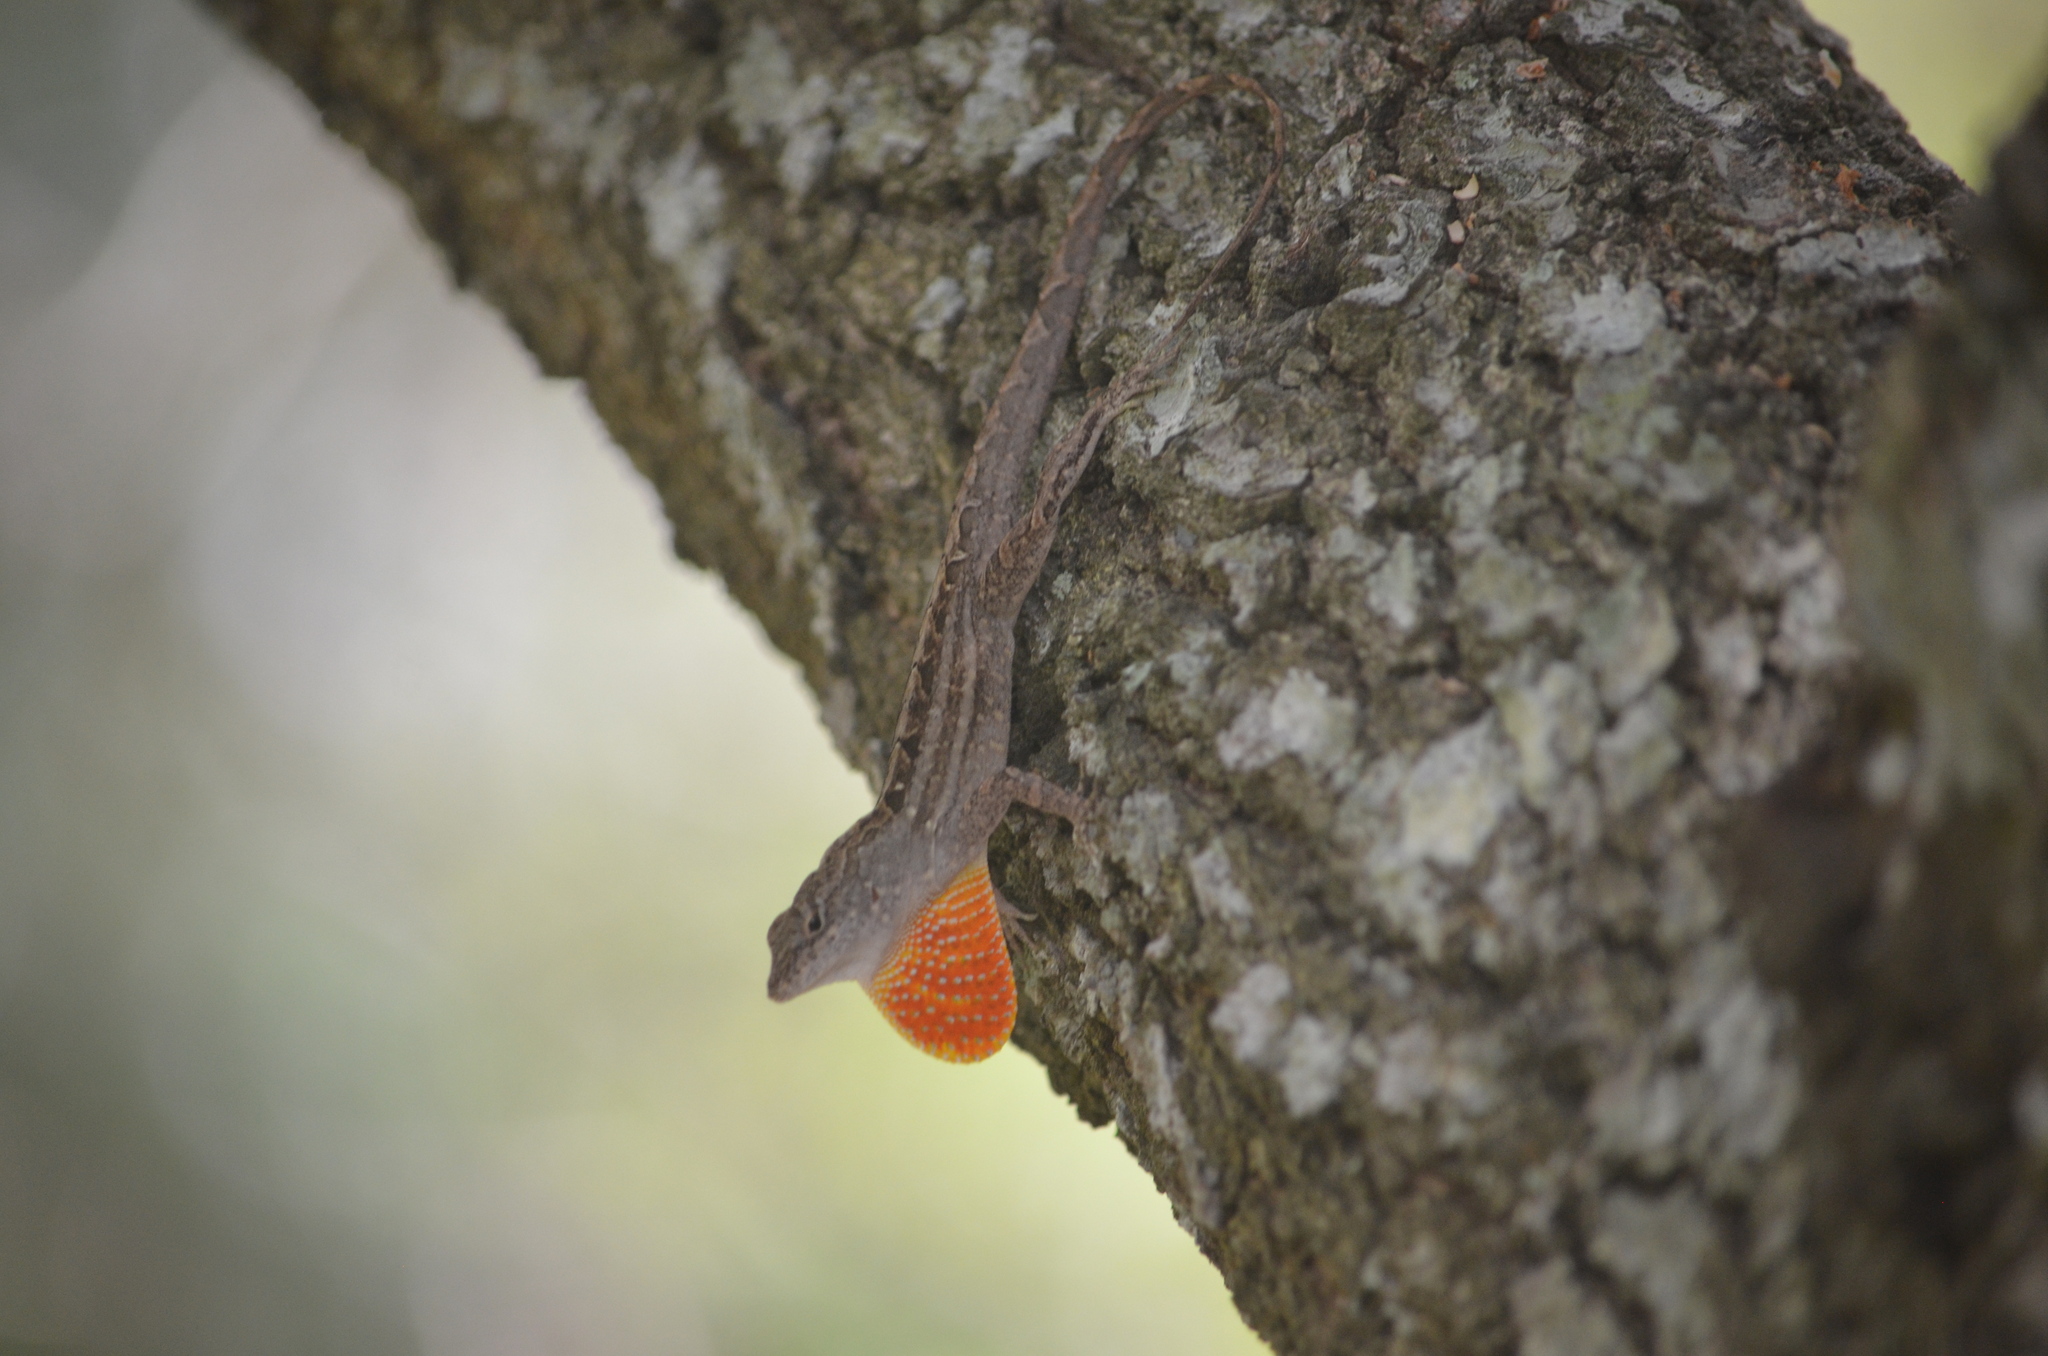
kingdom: Animalia
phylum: Chordata
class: Squamata
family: Dactyloidae
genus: Anolis
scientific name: Anolis sagrei
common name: Brown anole
